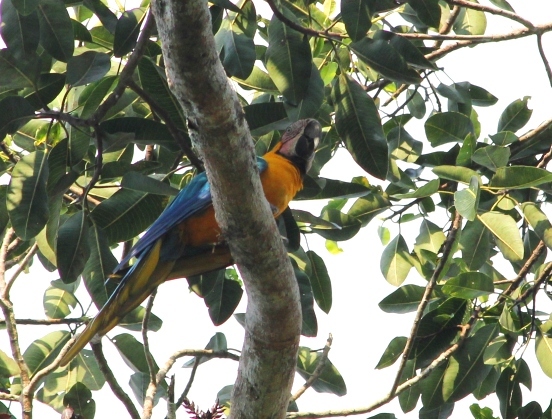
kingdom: Animalia
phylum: Chordata
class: Aves
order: Psittaciformes
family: Psittacidae
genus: Ara
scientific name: Ara ararauna
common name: Blue-and-yellow macaw
